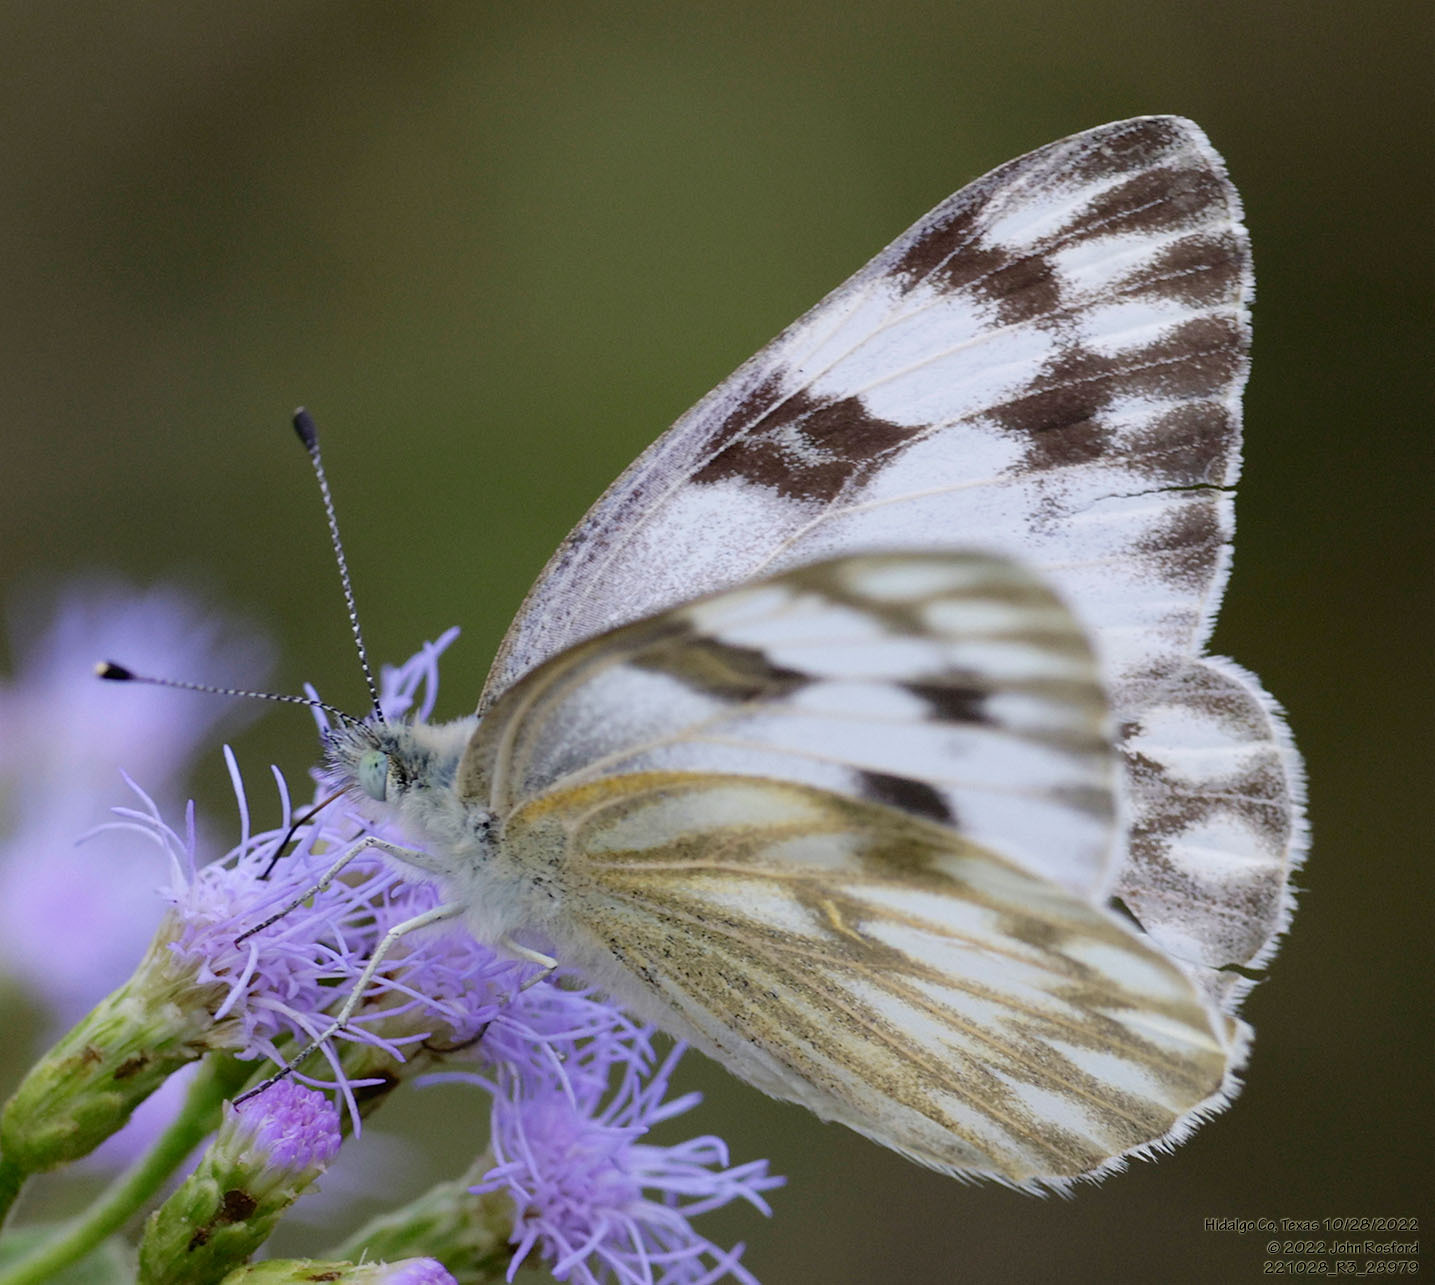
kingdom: Animalia
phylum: Arthropoda
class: Insecta
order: Lepidoptera
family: Pieridae
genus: Pontia
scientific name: Pontia protodice
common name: Checkered white
